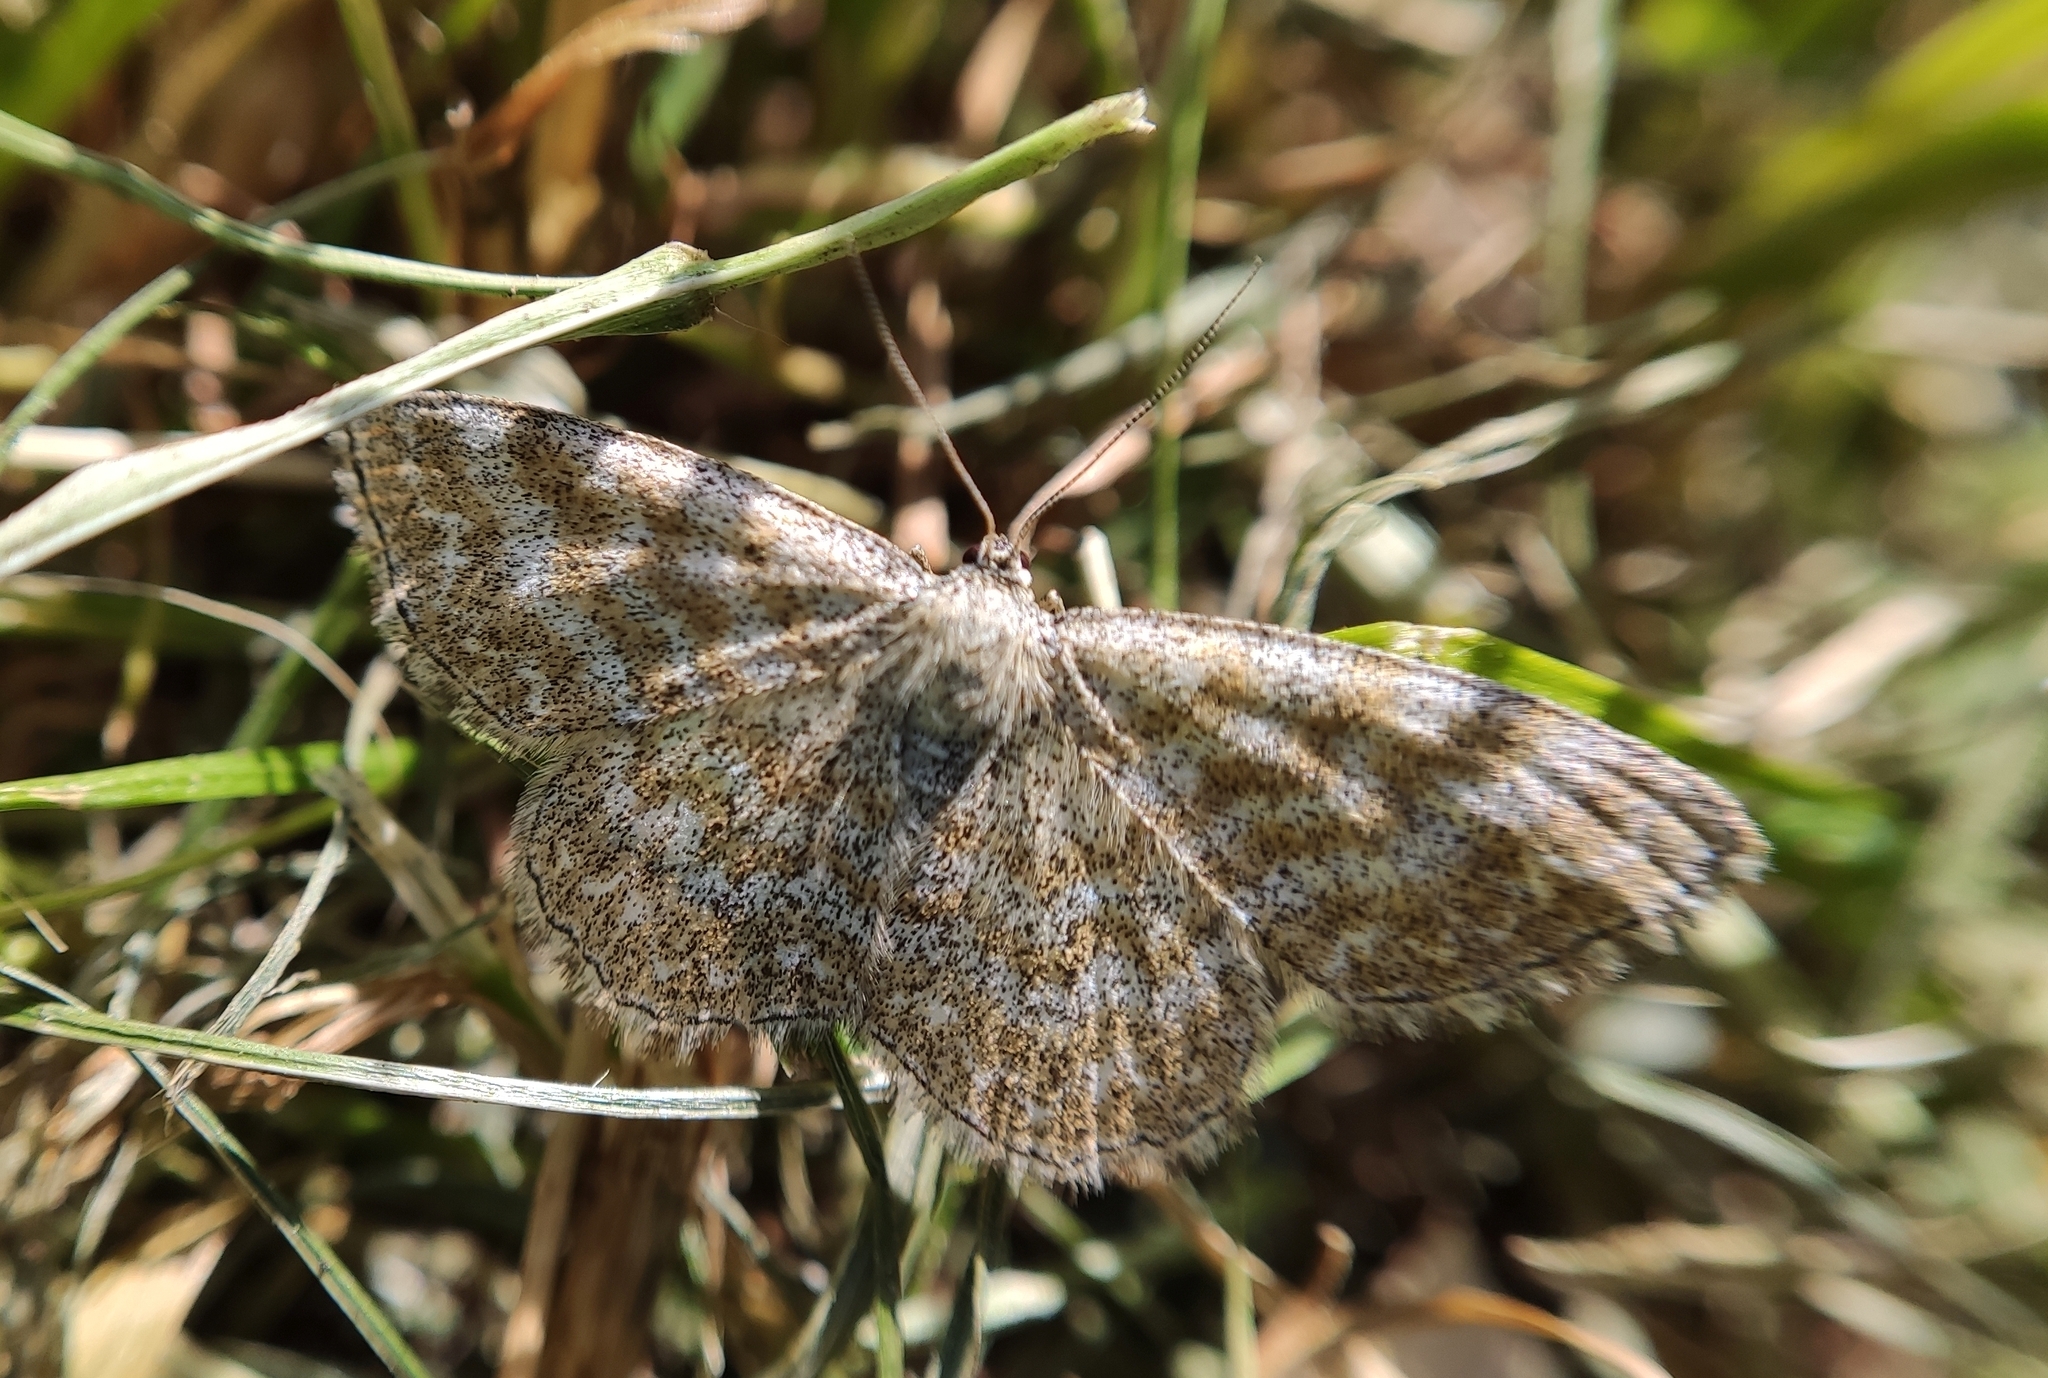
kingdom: Animalia
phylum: Arthropoda
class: Insecta
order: Lepidoptera
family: Geometridae
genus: Scopula
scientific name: Scopula immorata
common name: Lewes wave
